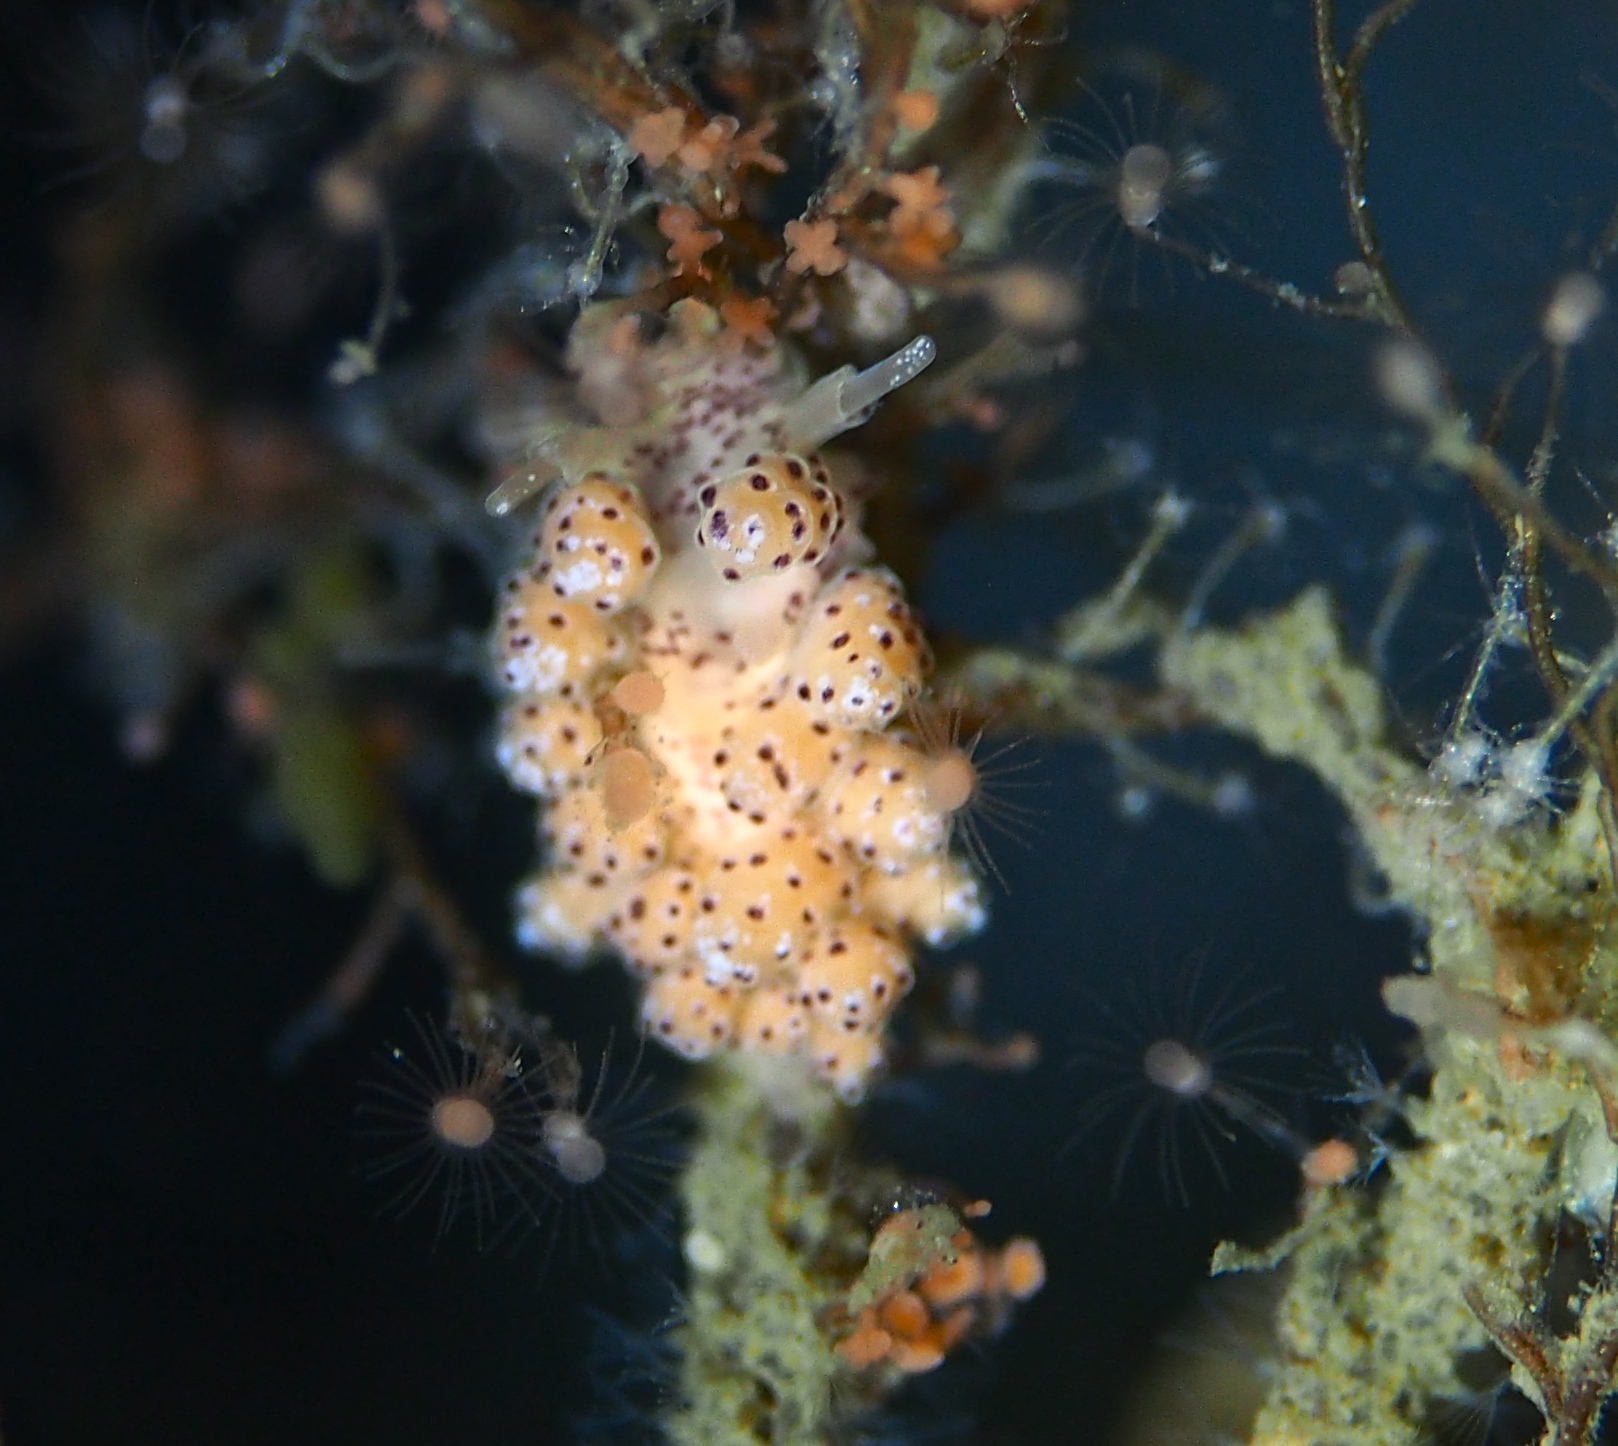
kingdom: Animalia
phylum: Mollusca
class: Gastropoda
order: Nudibranchia
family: Dotidae
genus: Doto
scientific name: Doto dunnei
